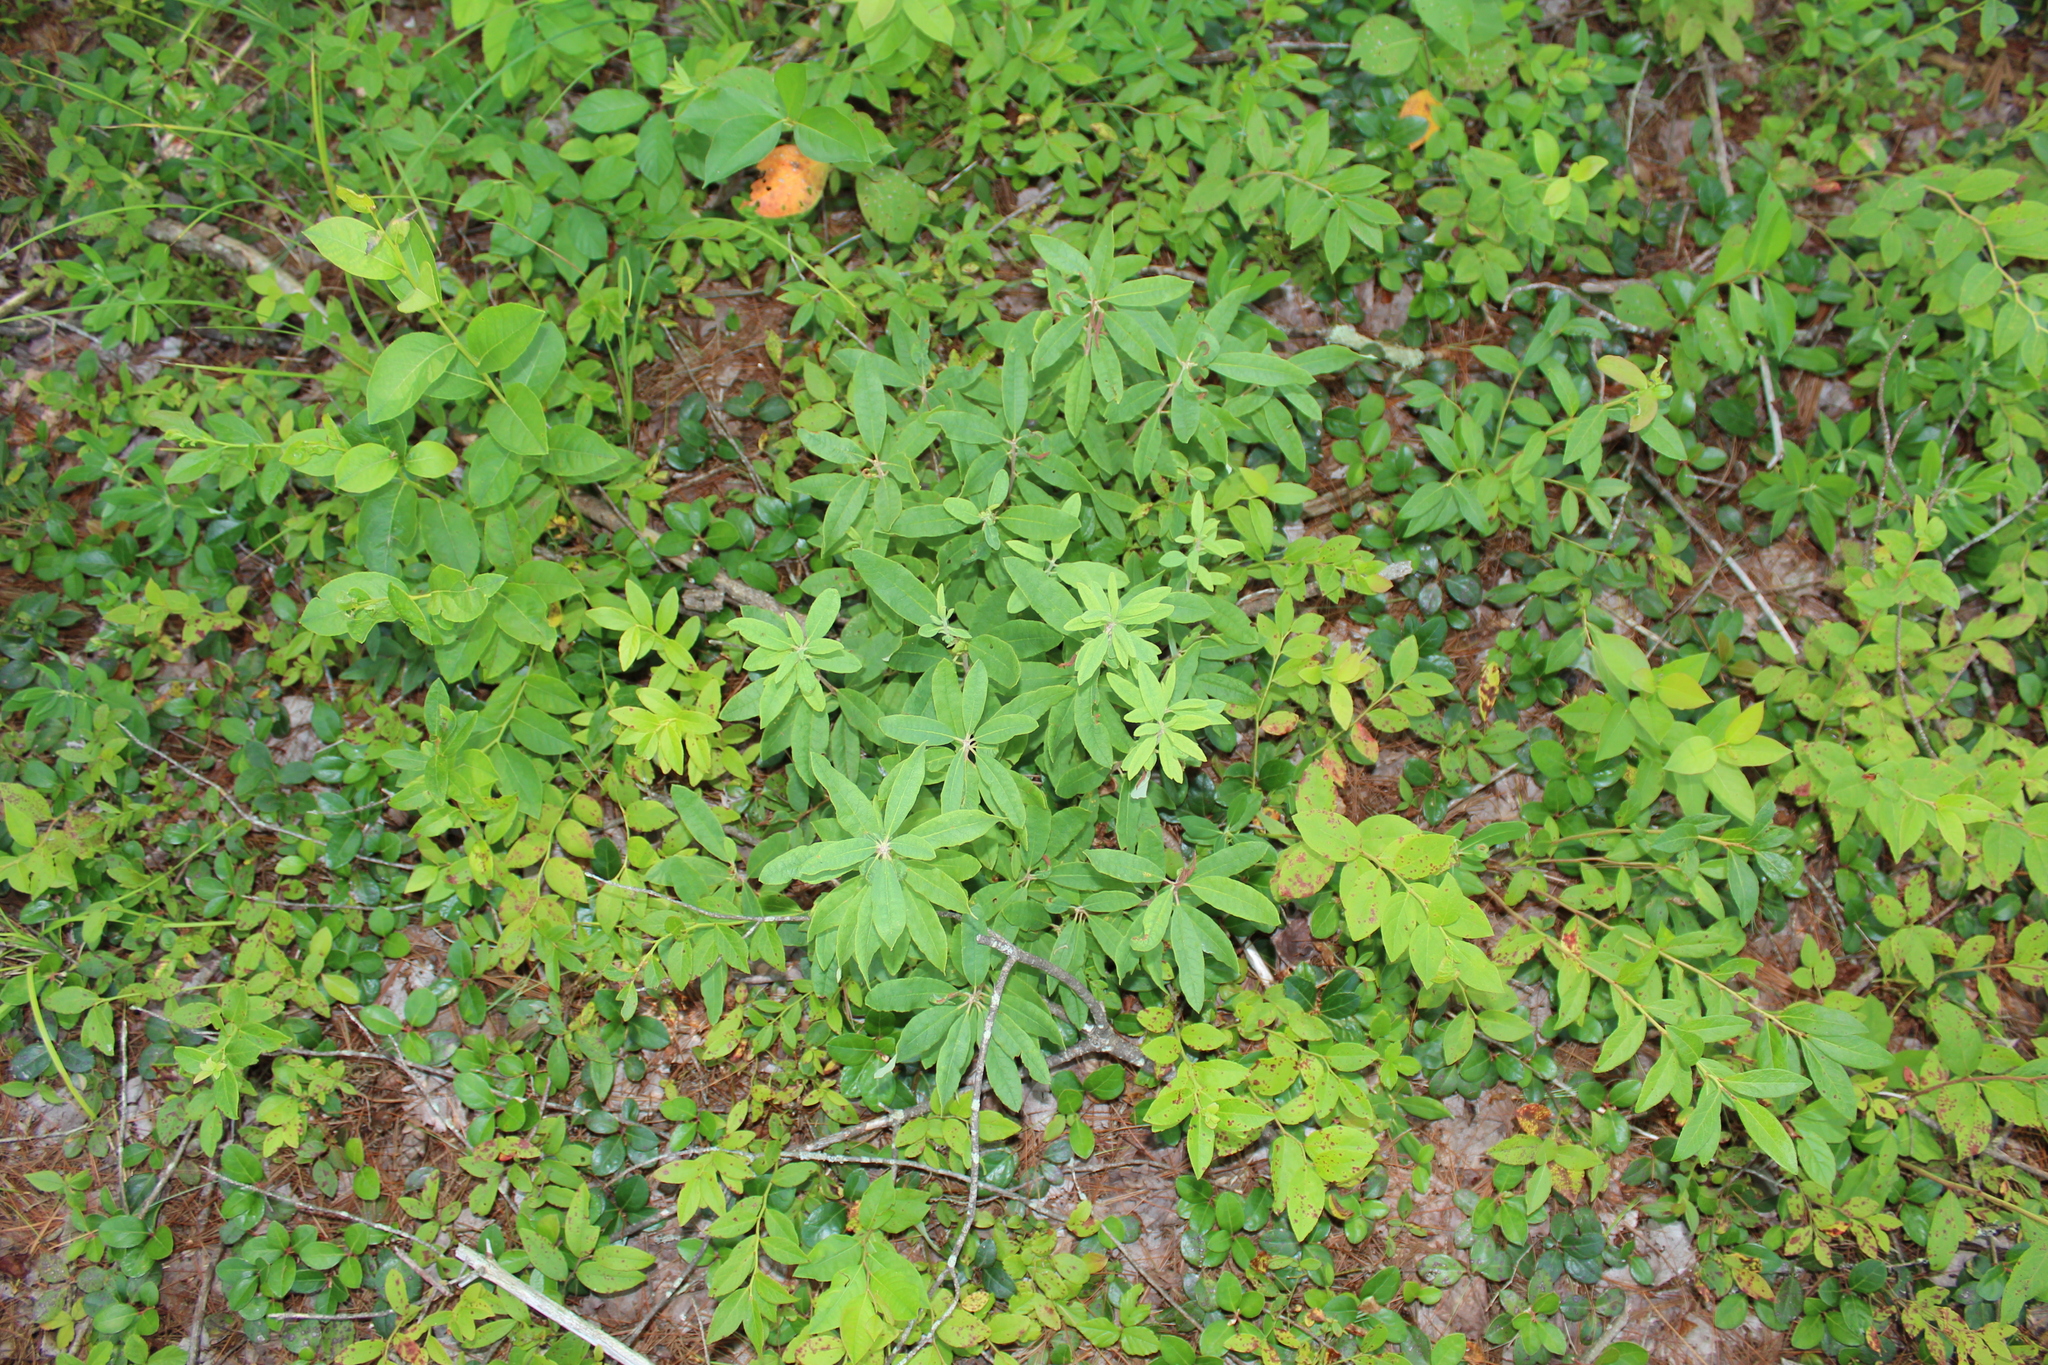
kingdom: Plantae
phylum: Tracheophyta
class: Magnoliopsida
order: Ericales
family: Ericaceae
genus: Kalmia
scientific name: Kalmia angustifolia
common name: Sheep-laurel
